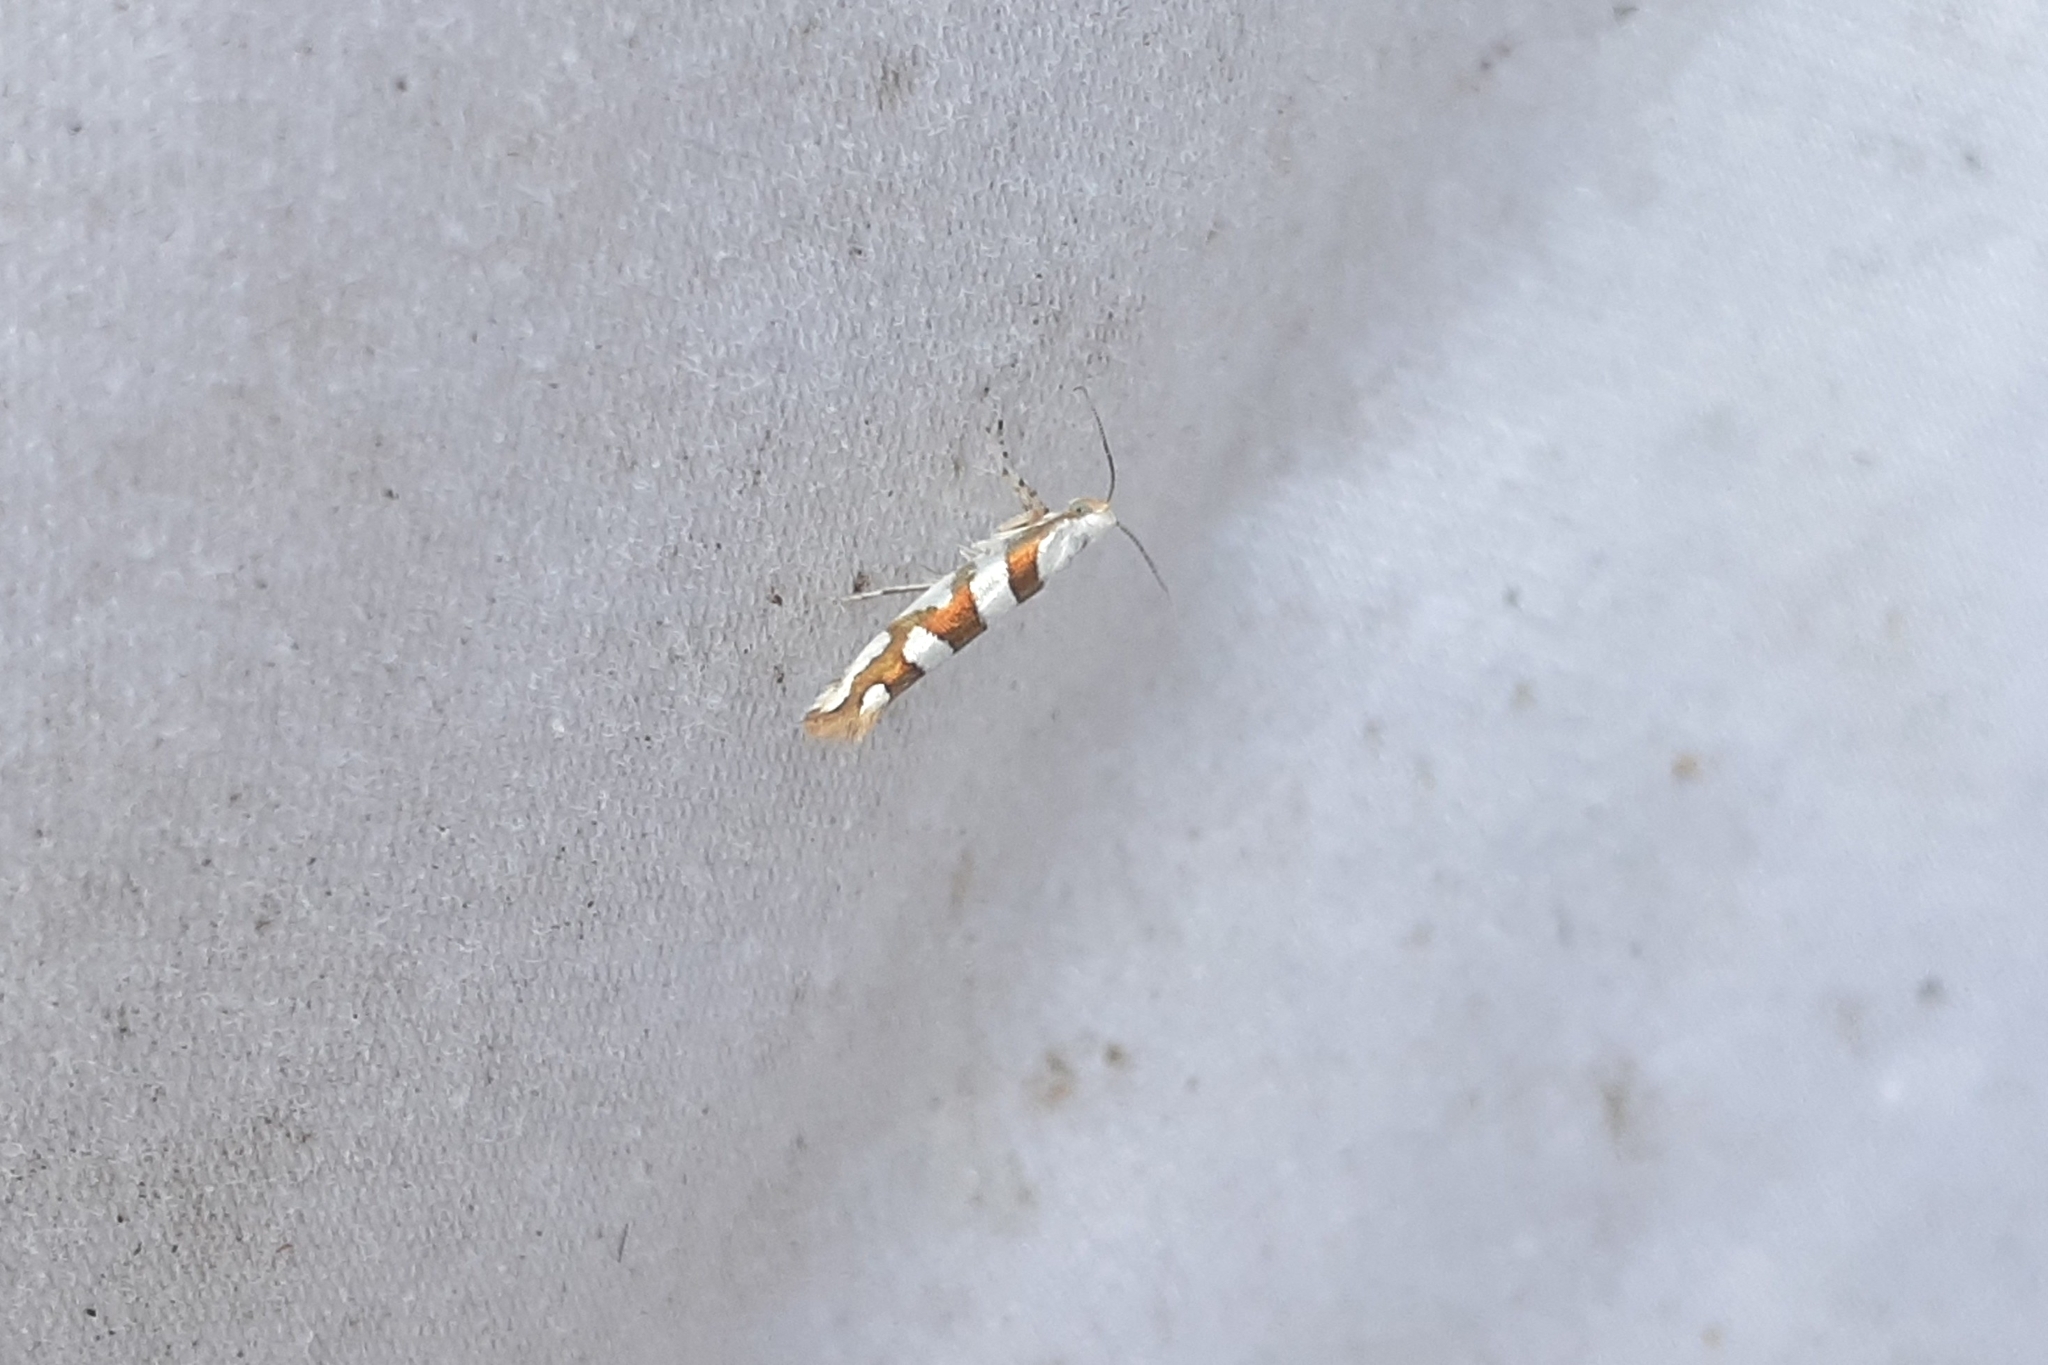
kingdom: Animalia
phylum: Arthropoda
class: Insecta
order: Lepidoptera
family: Argyresthiidae
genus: Argyresthia
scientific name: Argyresthia calliphanes
